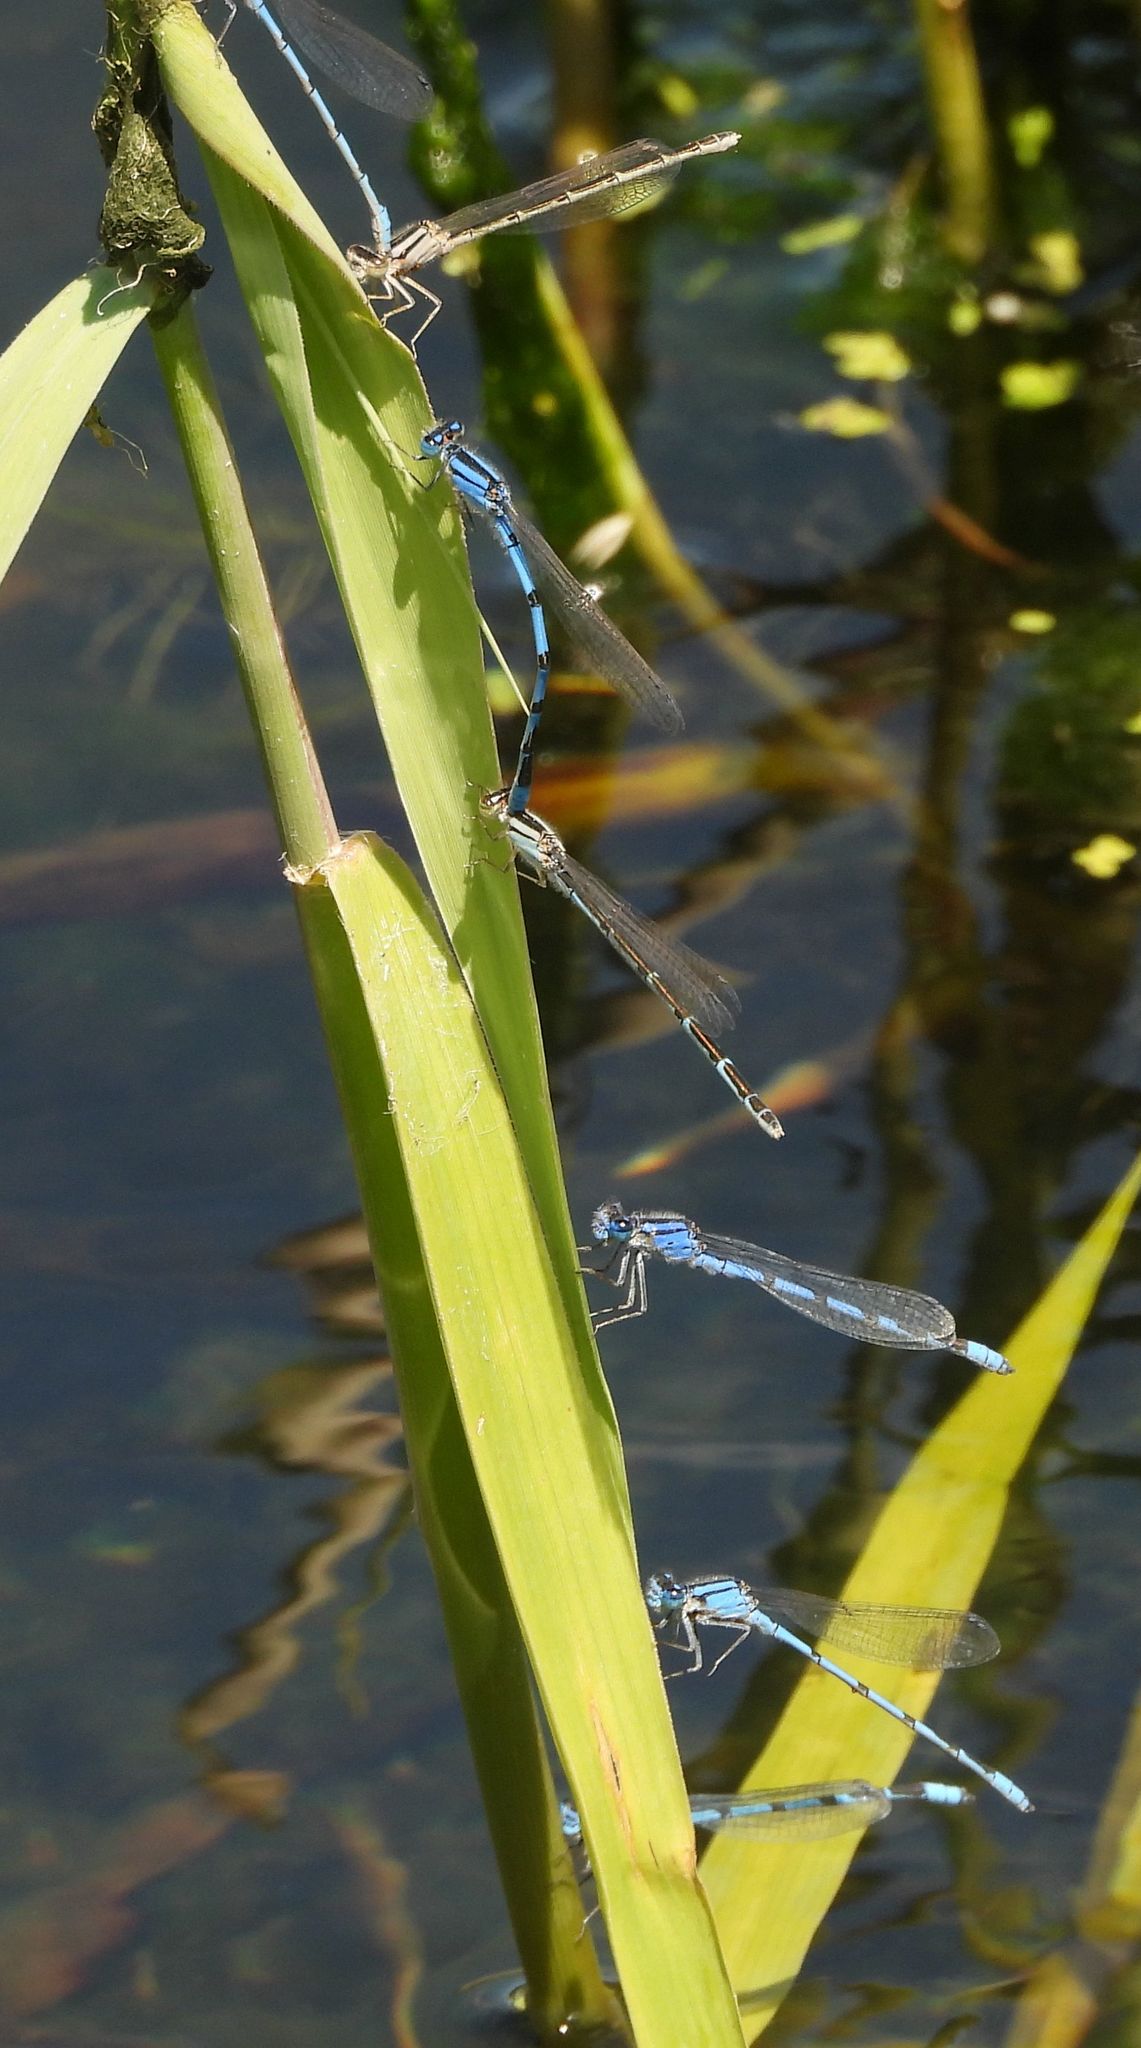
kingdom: Animalia
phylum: Arthropoda
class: Insecta
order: Odonata
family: Coenagrionidae
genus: Enallagma
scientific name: Enallagma civile
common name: Damselfly
